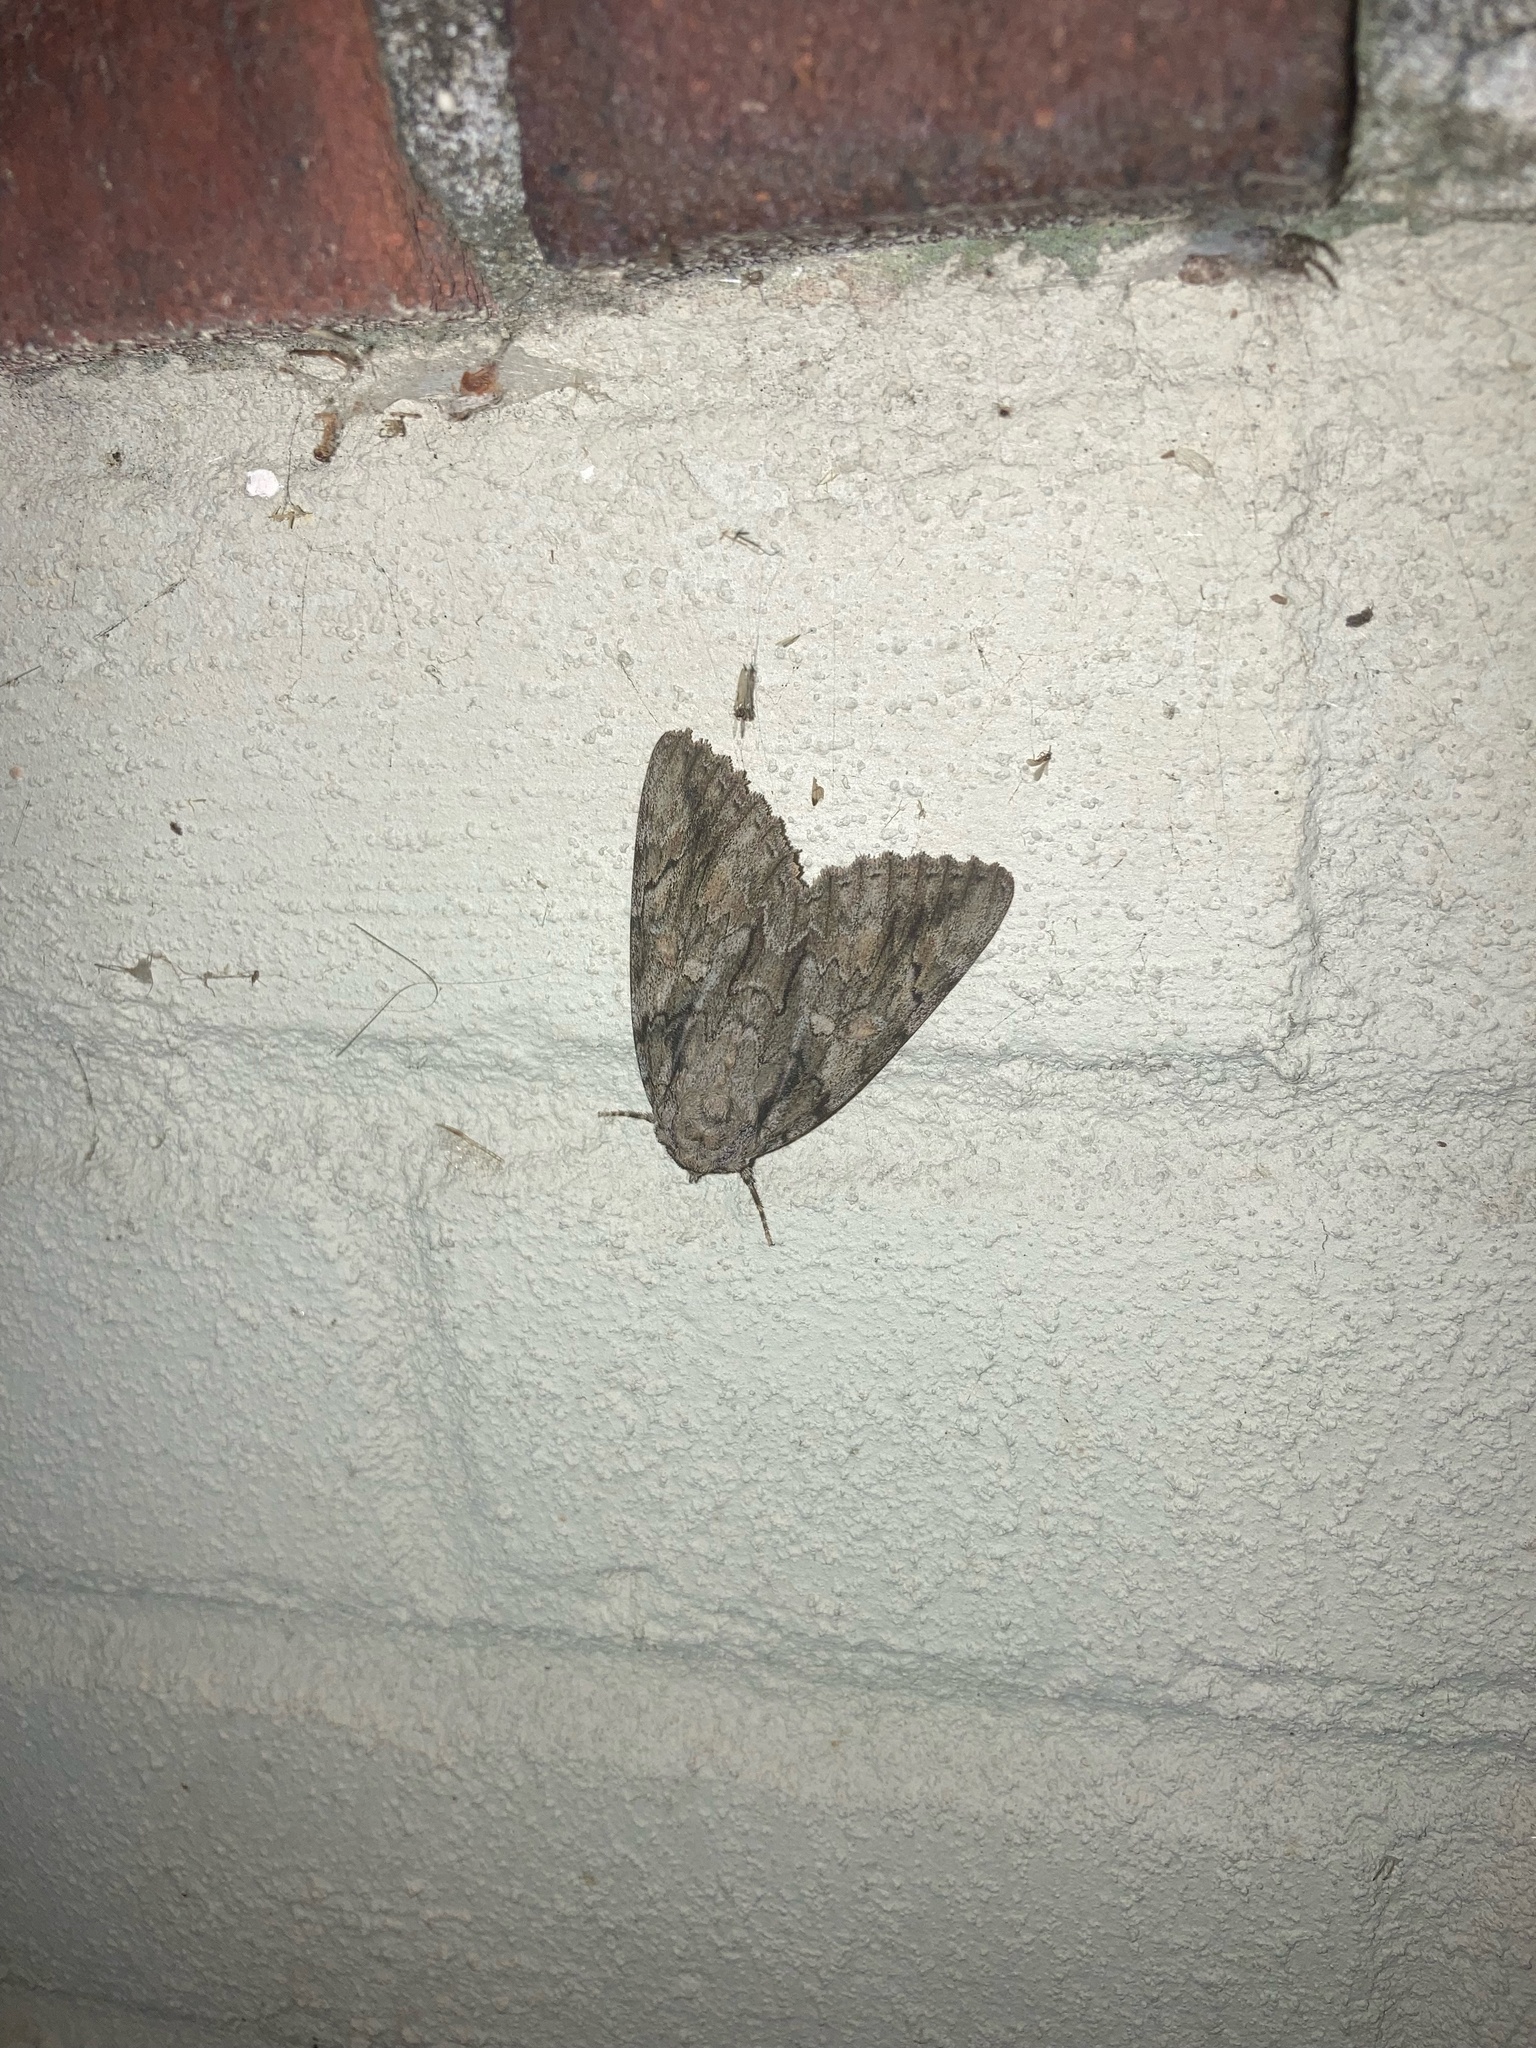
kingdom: Animalia
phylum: Arthropoda
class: Insecta
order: Lepidoptera
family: Erebidae
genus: Catocala
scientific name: Catocala neogama
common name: Bride underwing
